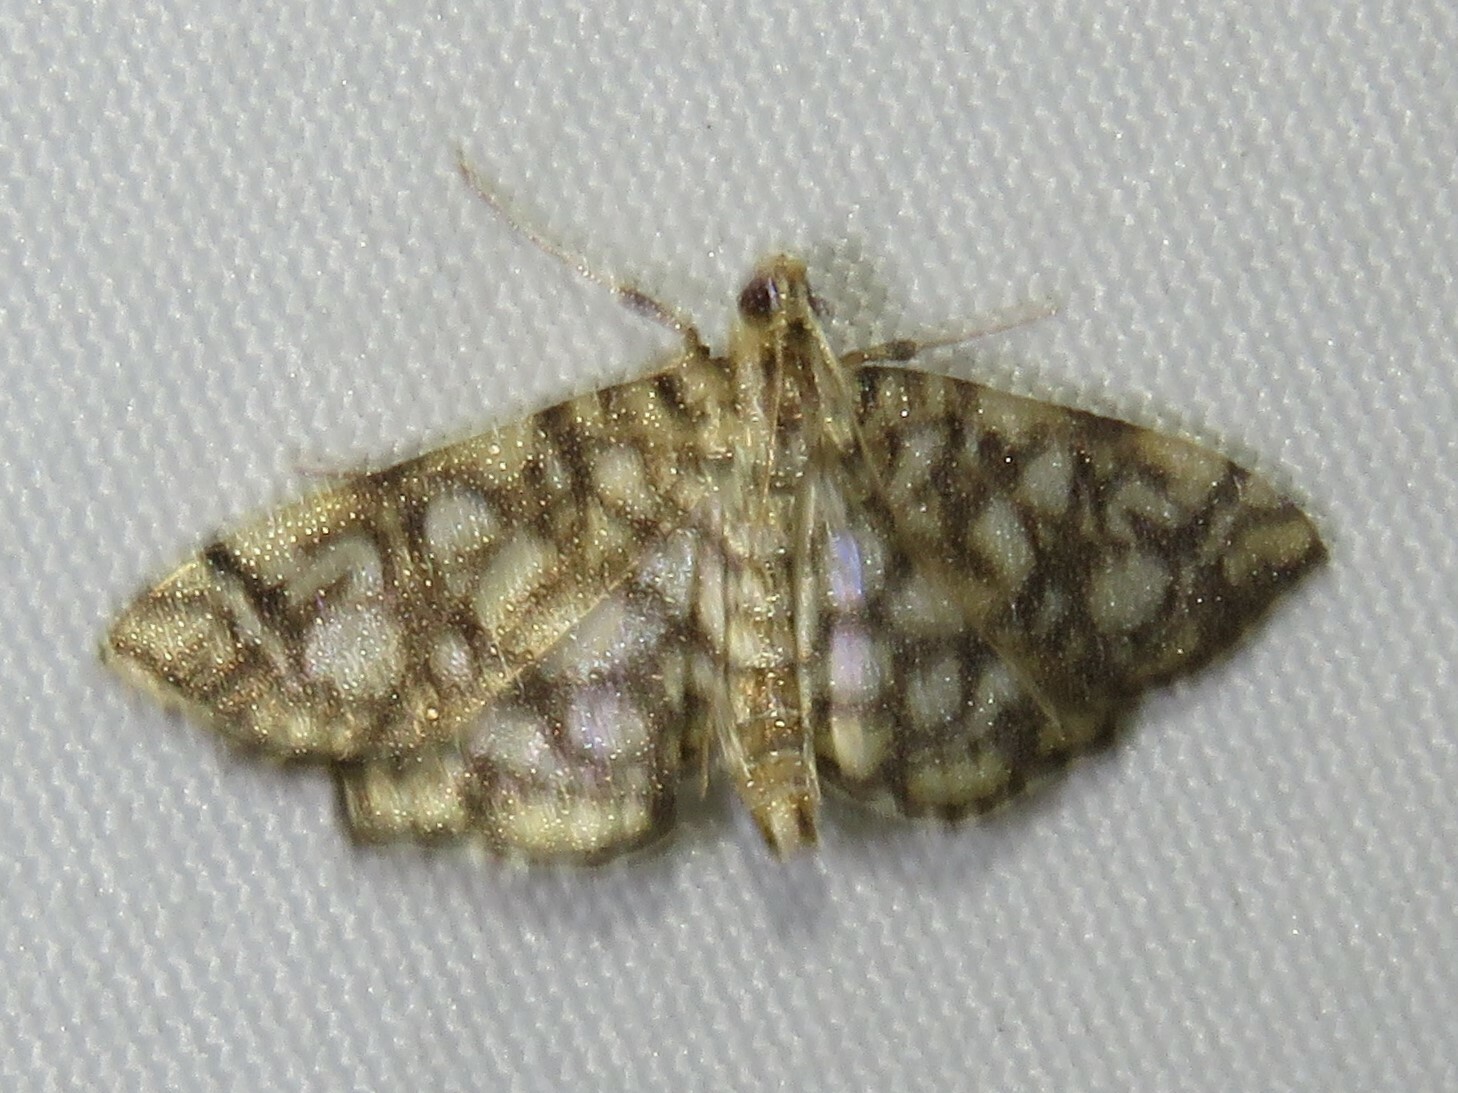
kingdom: Animalia
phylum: Arthropoda
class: Insecta
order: Lepidoptera
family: Crambidae
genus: Lygropia
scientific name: Lygropia rivulalis
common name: Bog lygropia moth
